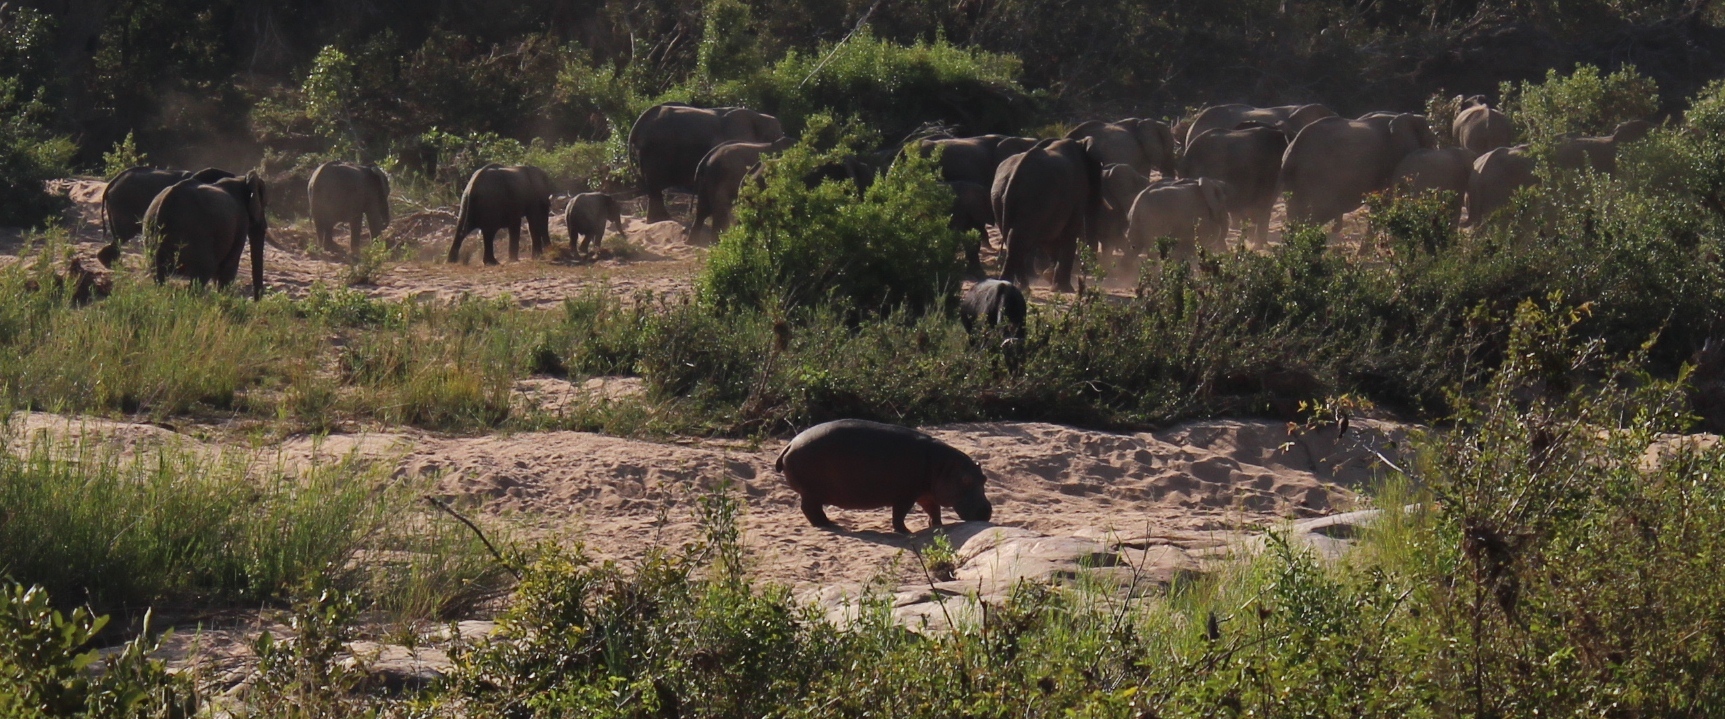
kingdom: Animalia
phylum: Chordata
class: Mammalia
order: Artiodactyla
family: Hippopotamidae
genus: Hippopotamus
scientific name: Hippopotamus amphibius
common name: Common hippopotamus
